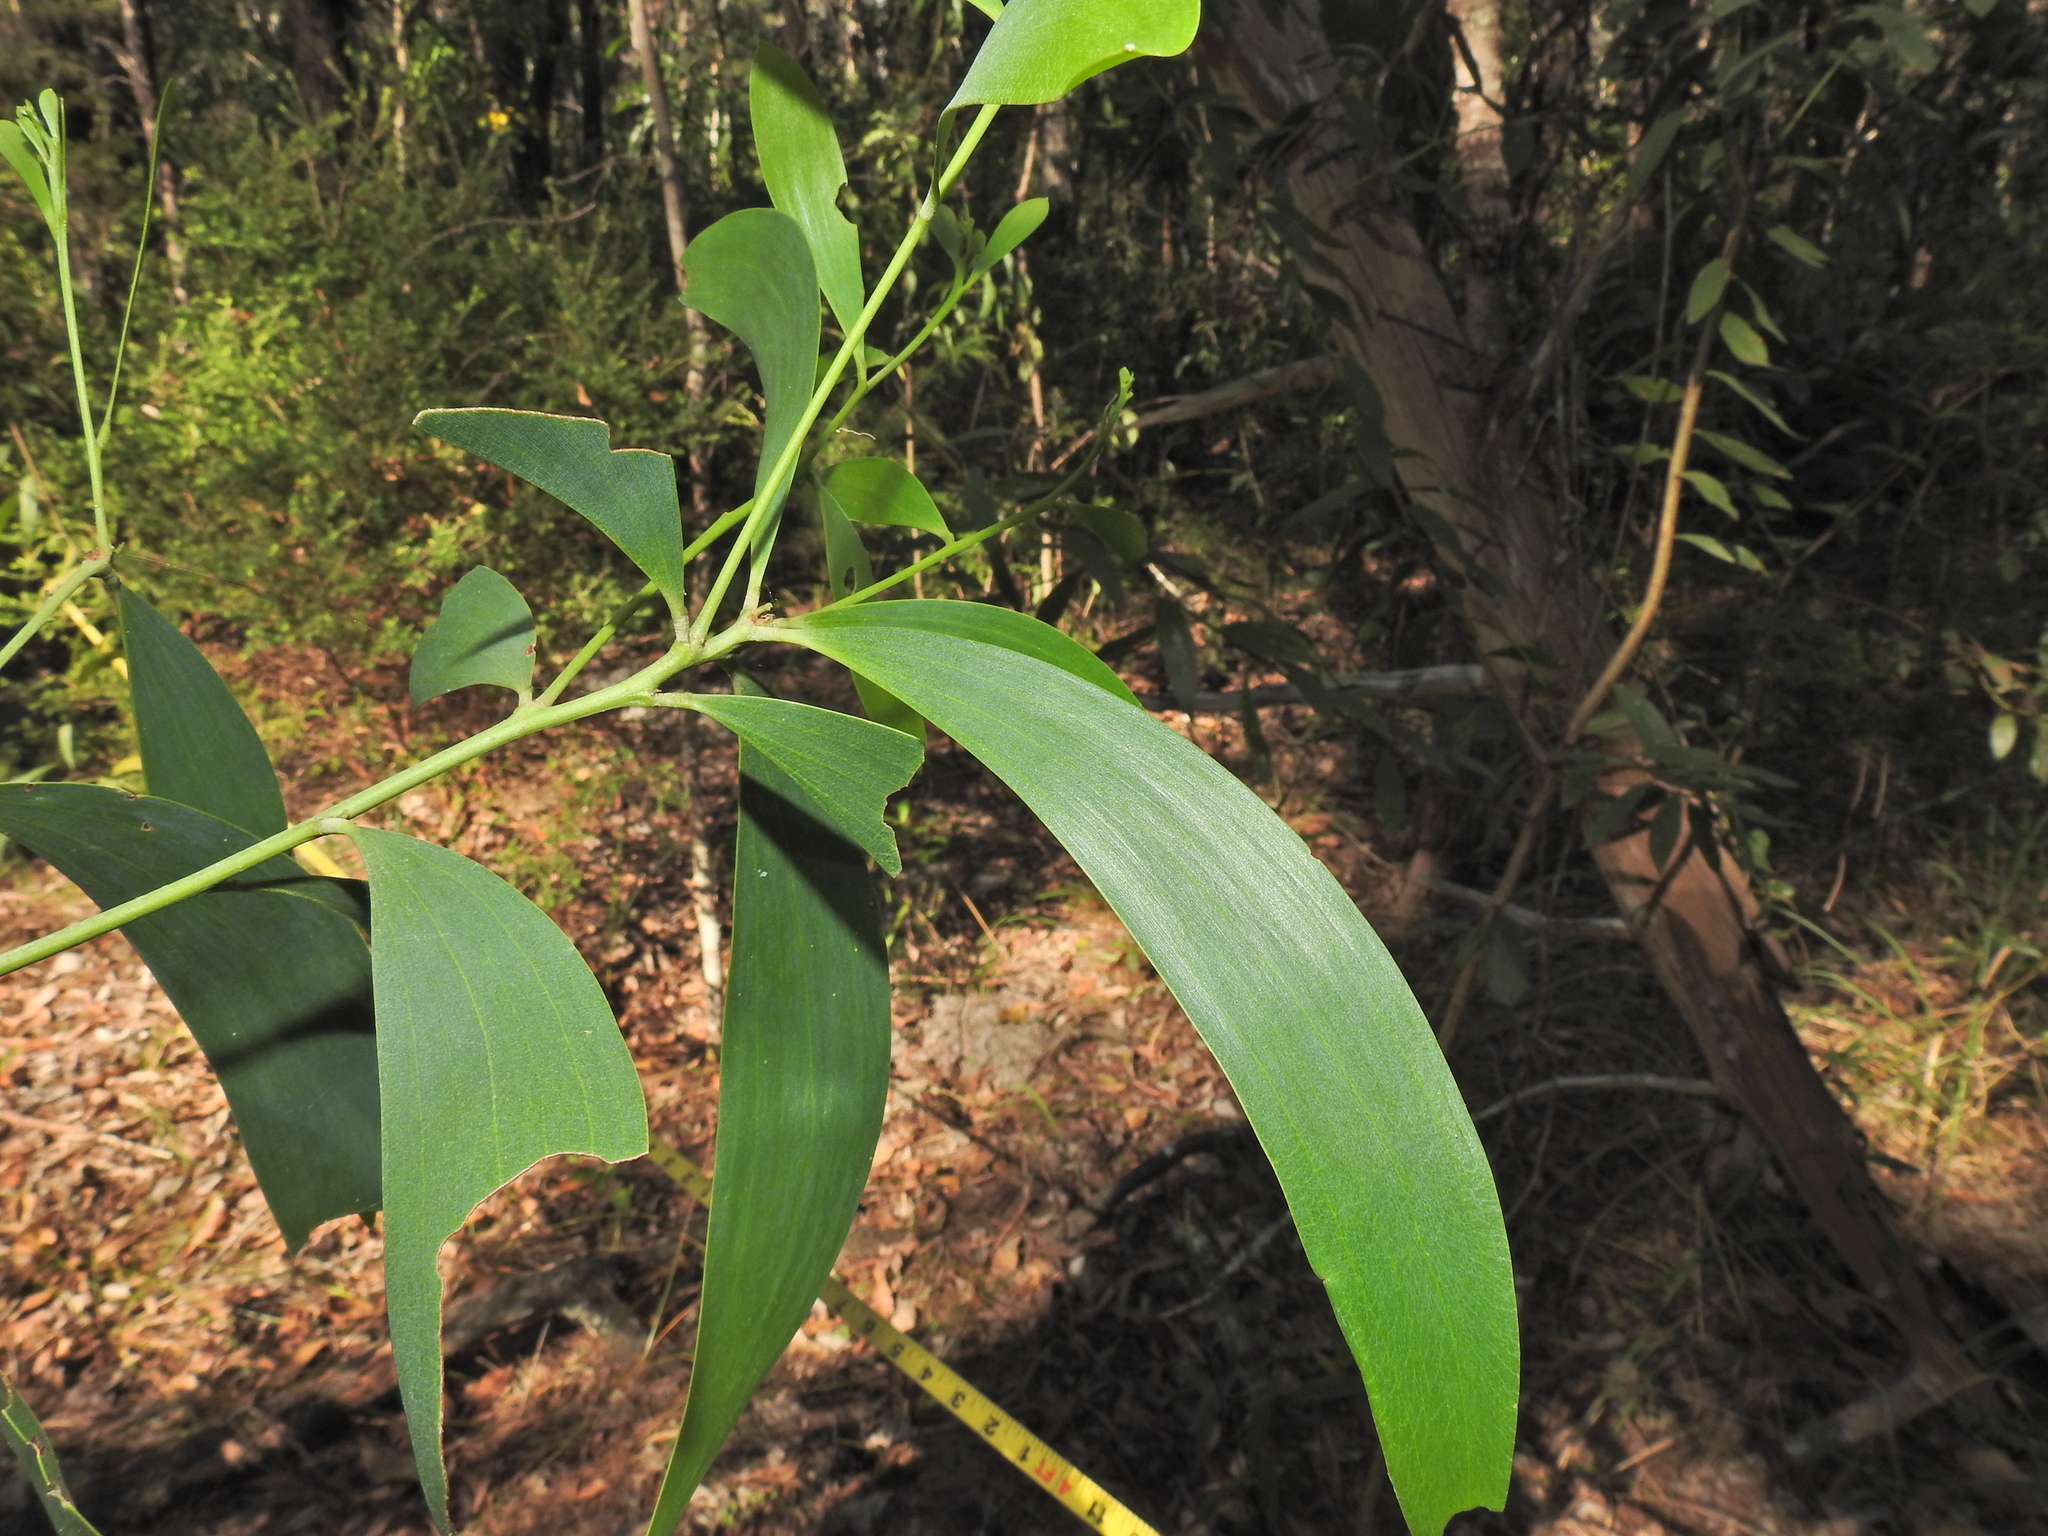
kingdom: Plantae
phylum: Tracheophyta
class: Magnoliopsida
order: Fabales
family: Fabaceae
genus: Acacia
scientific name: Acacia disparrima
